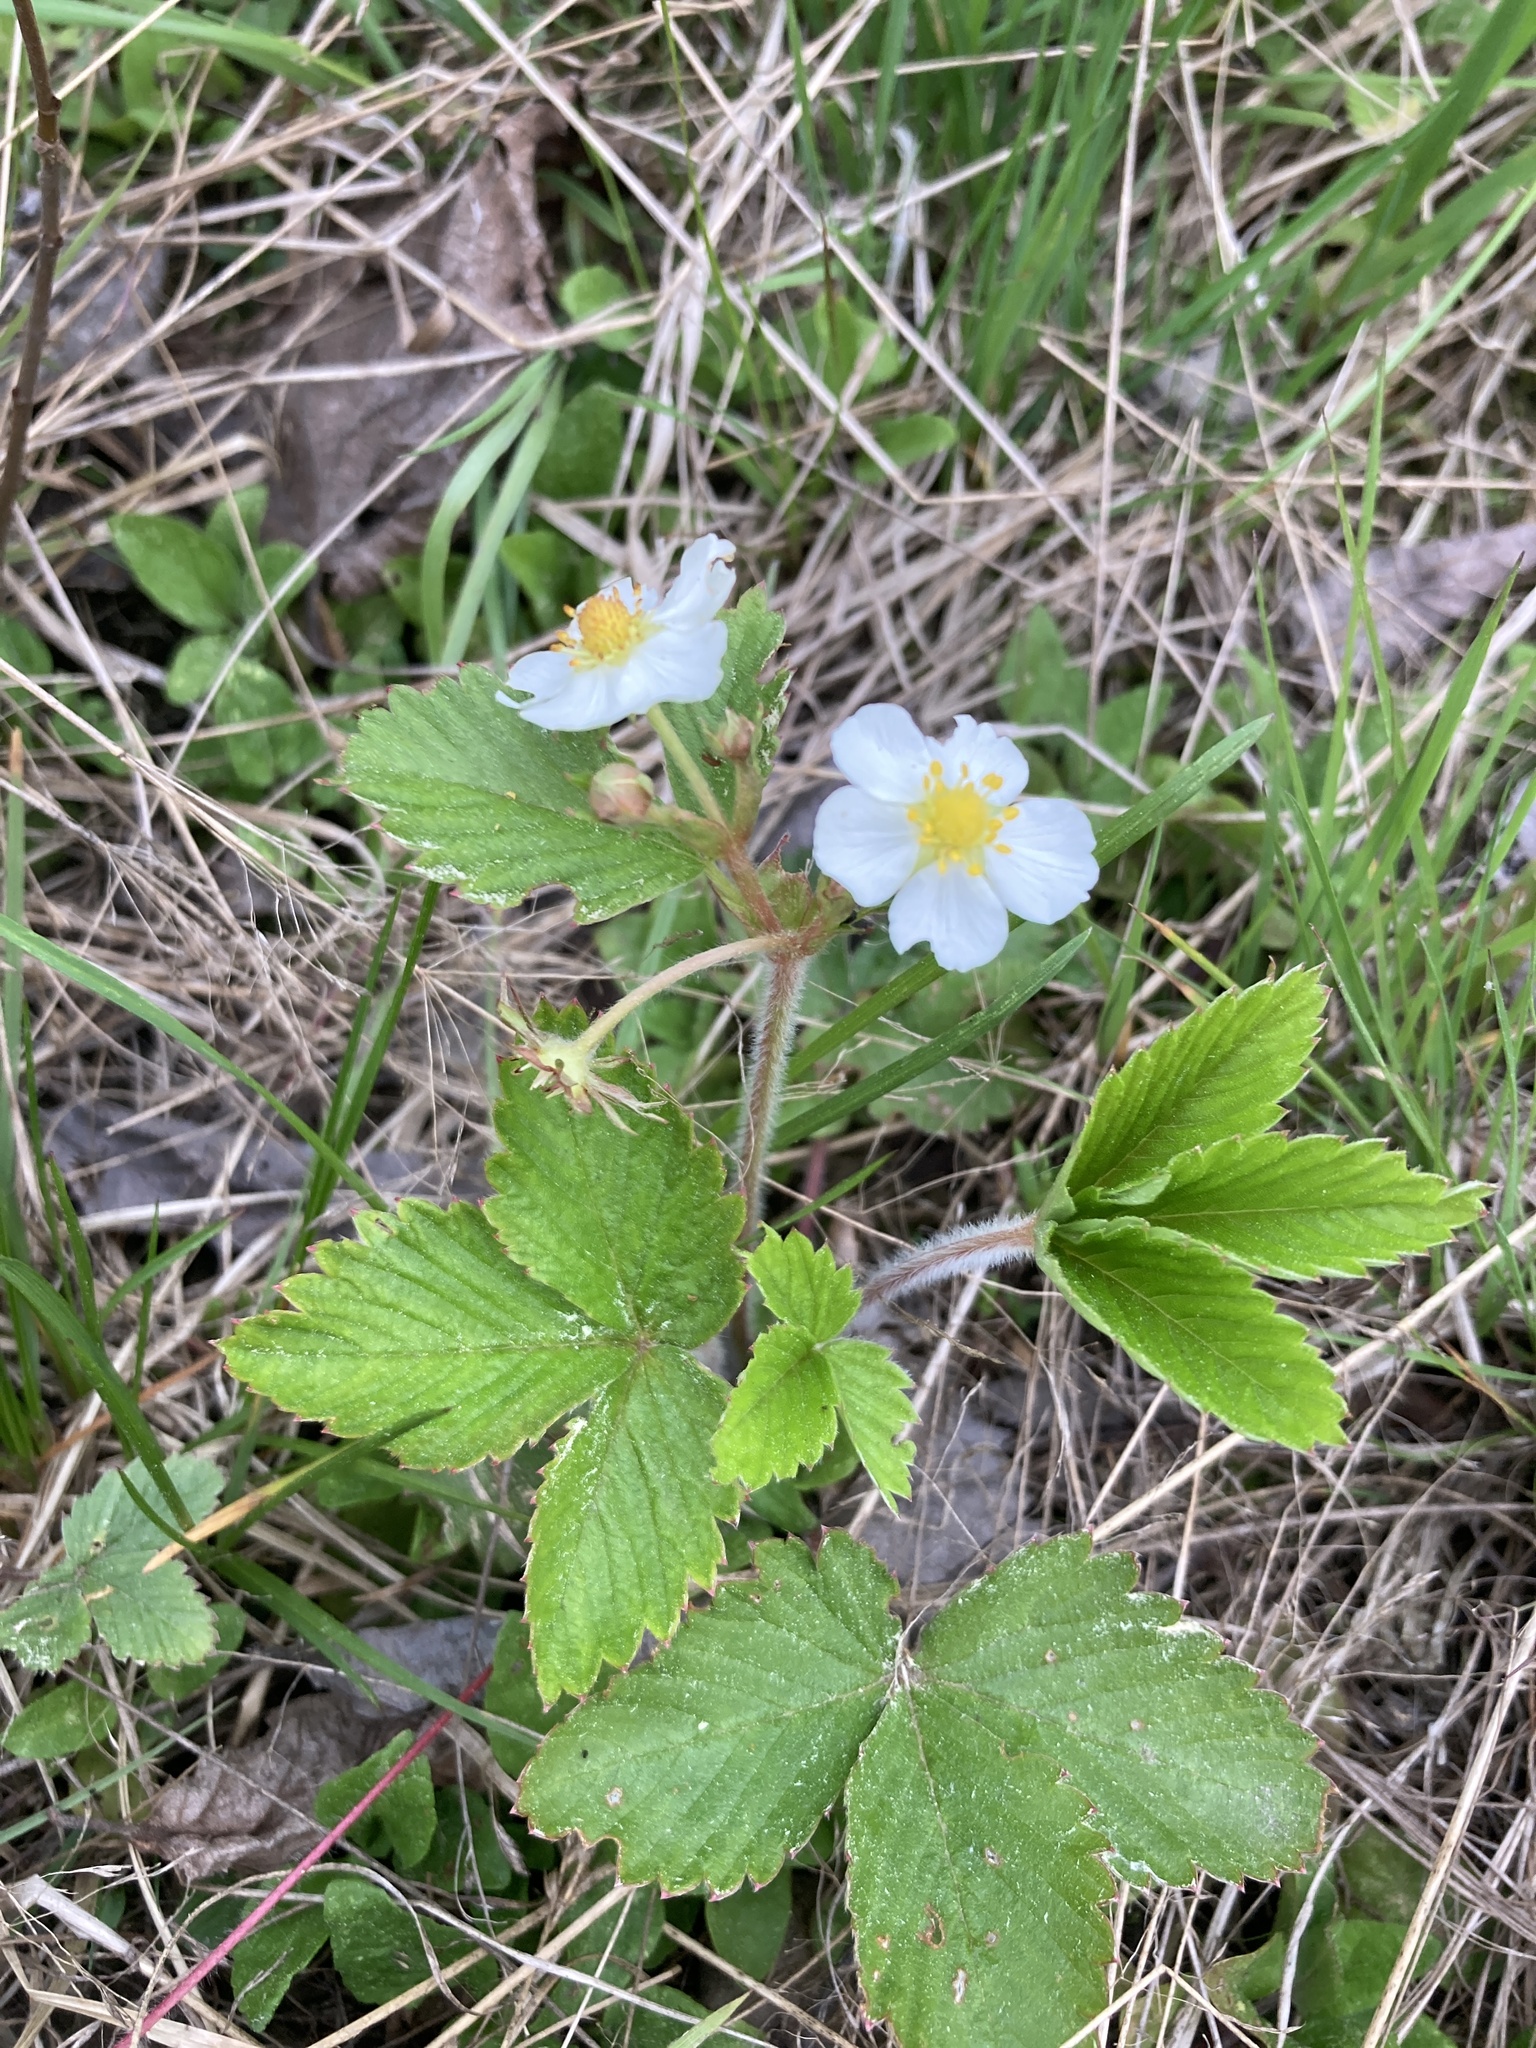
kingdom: Plantae
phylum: Tracheophyta
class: Magnoliopsida
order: Rosales
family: Rosaceae
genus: Fragaria
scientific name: Fragaria vesca
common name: Wild strawberry
